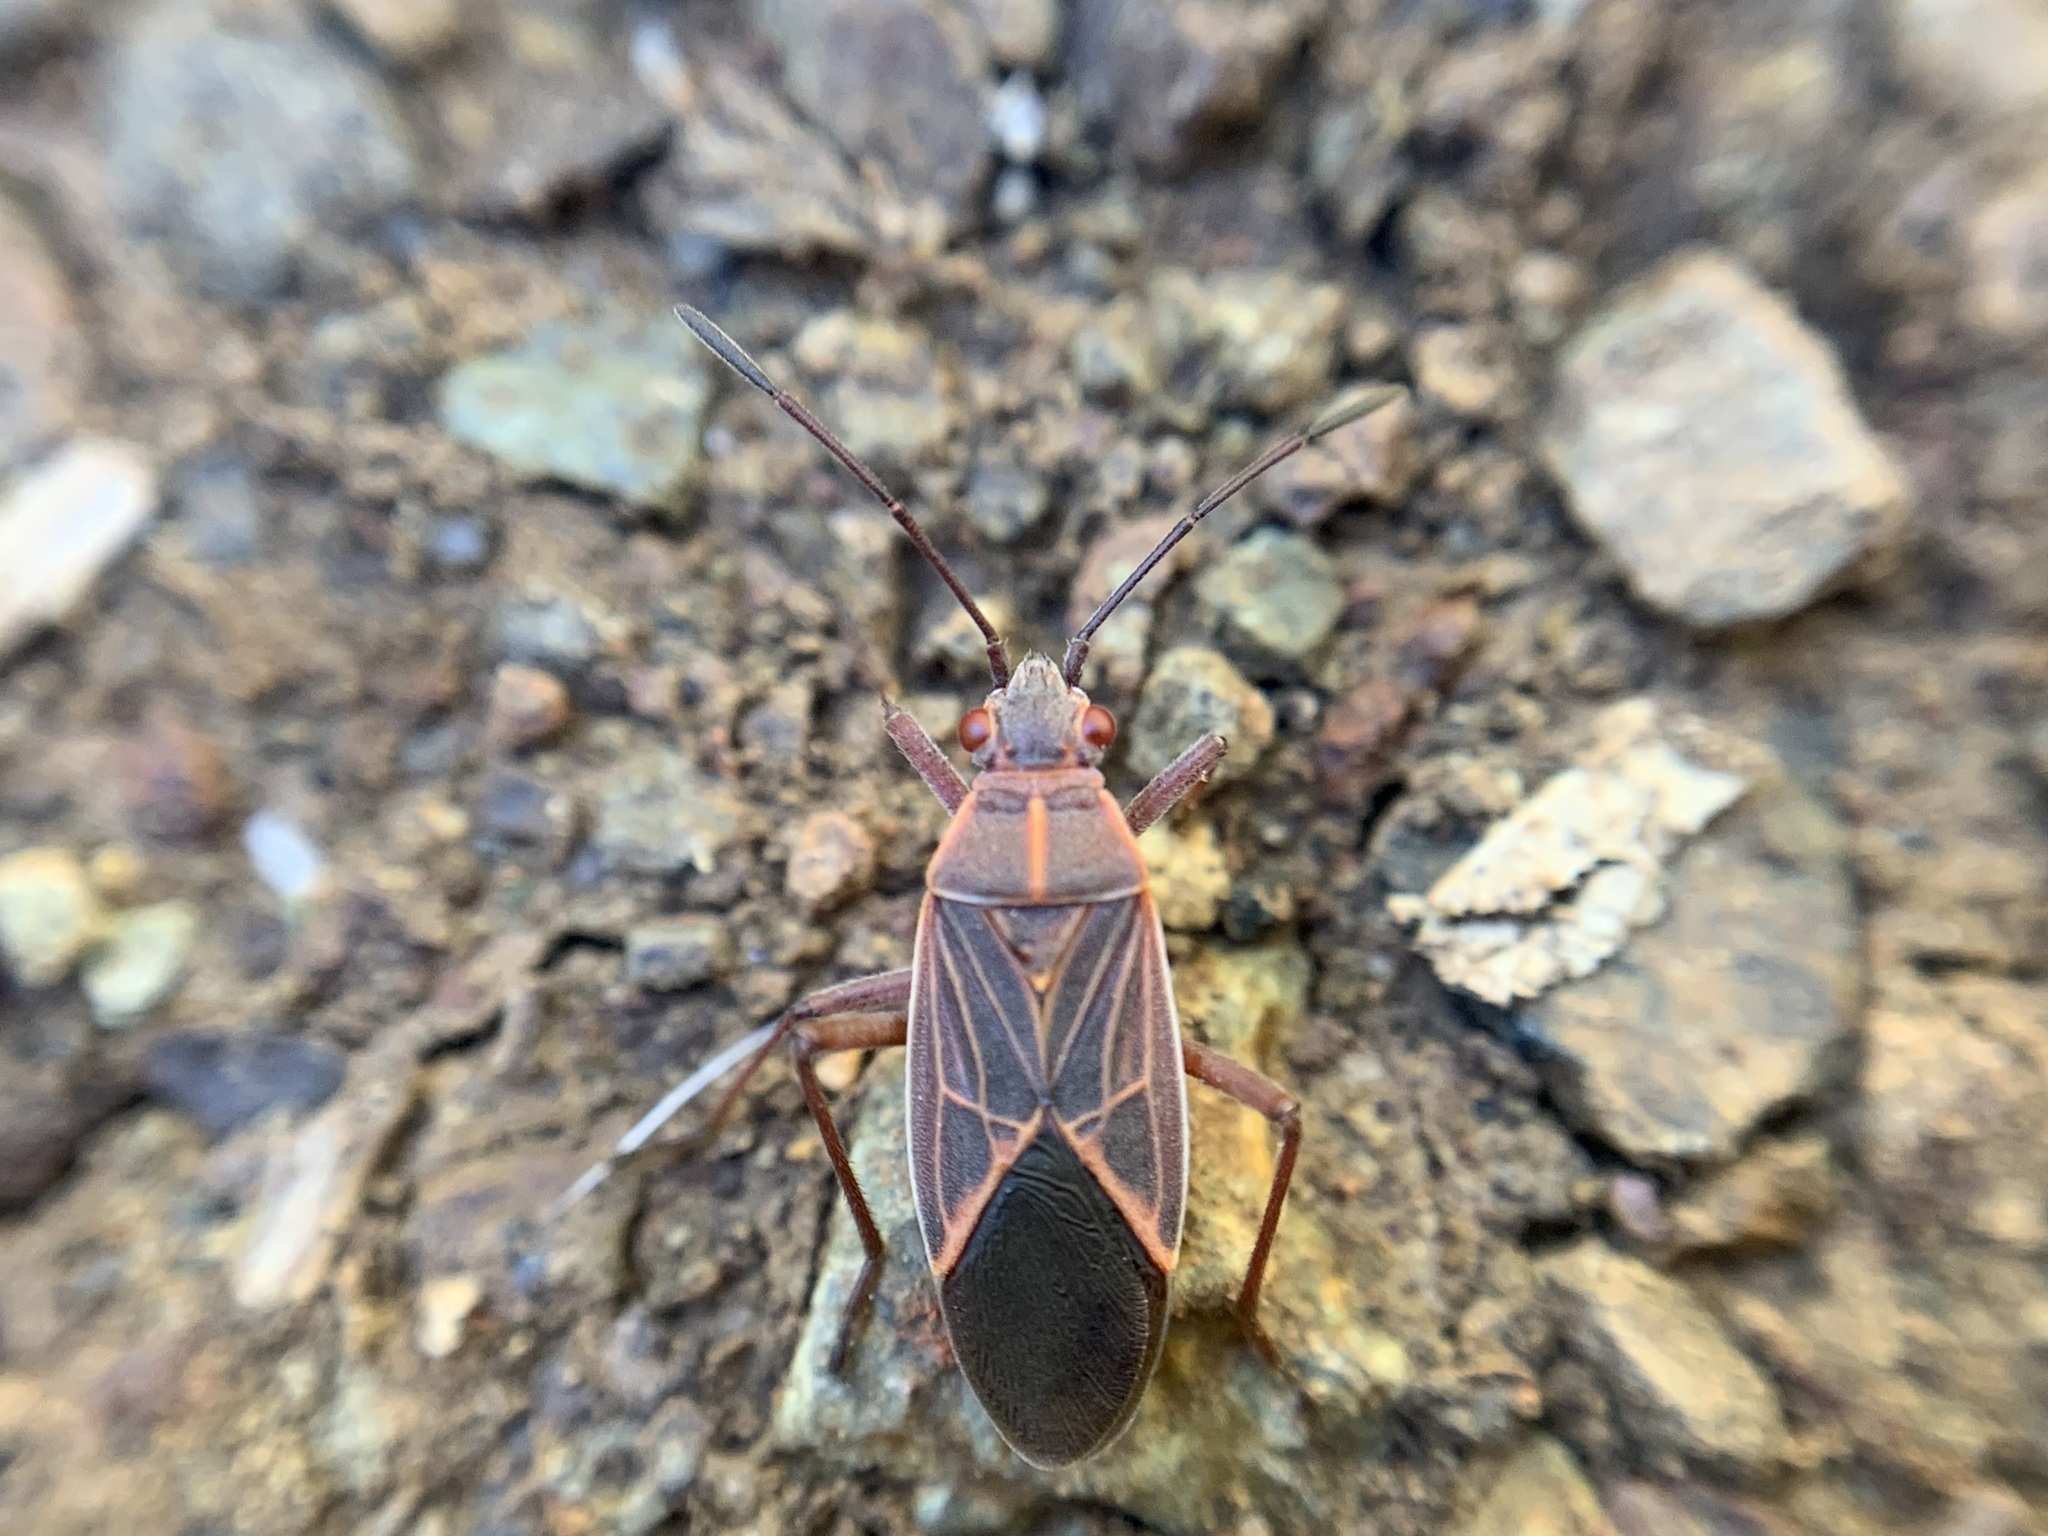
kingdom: Animalia
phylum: Arthropoda
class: Insecta
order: Hemiptera
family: Rhopalidae
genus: Boisea
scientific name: Boisea rubrolineata
